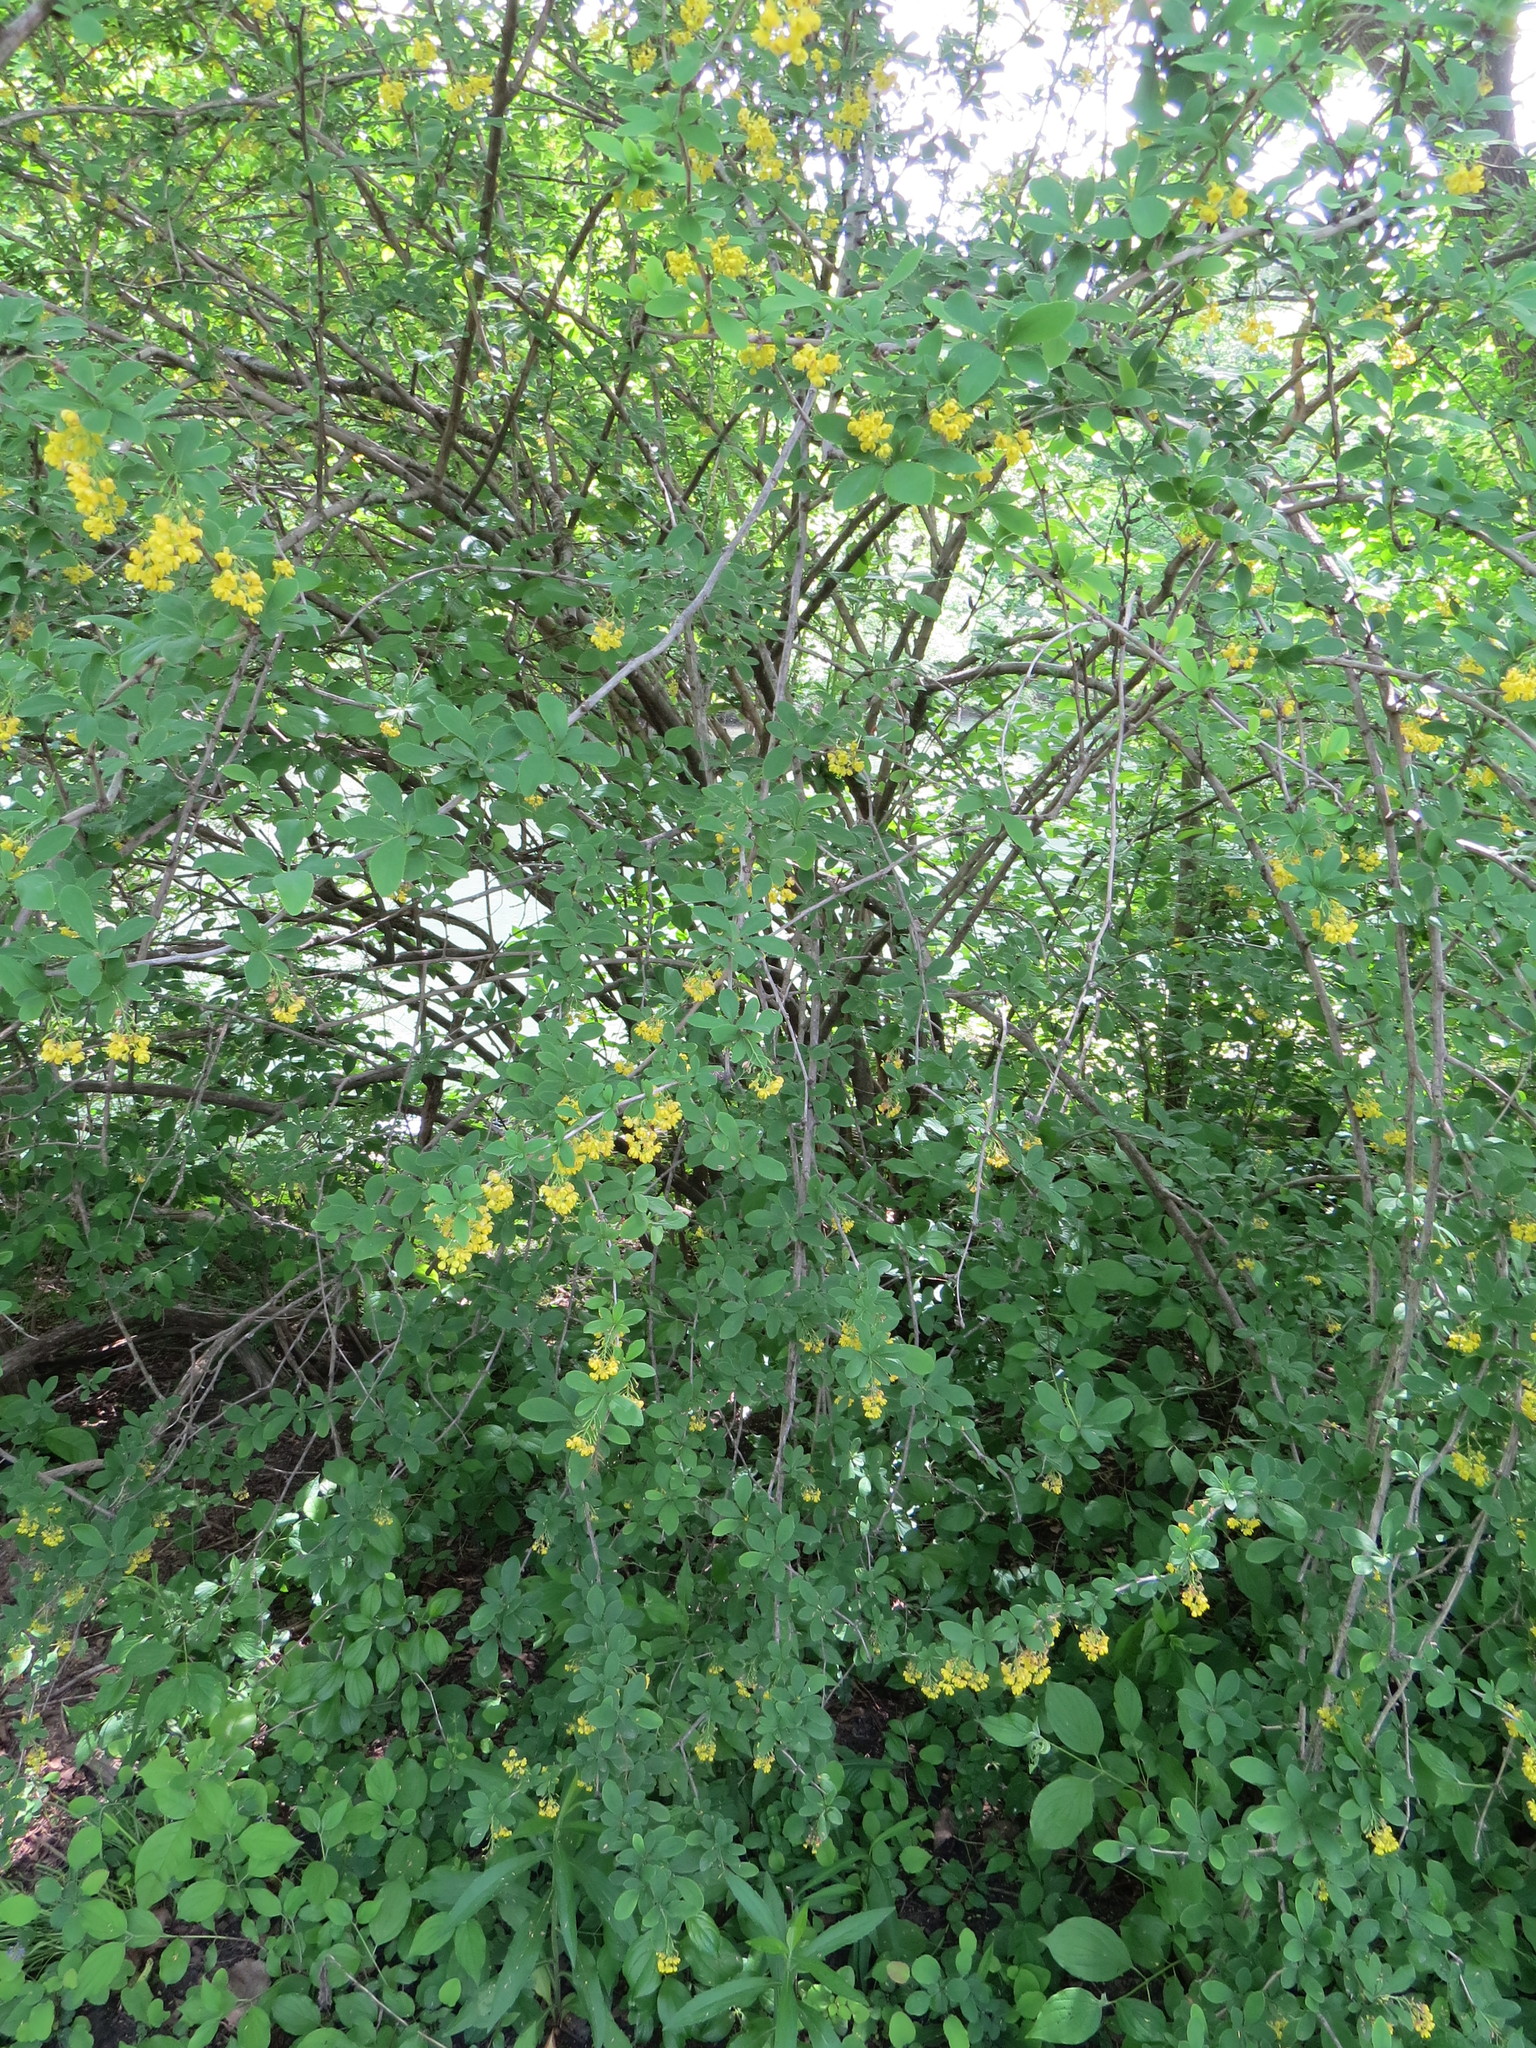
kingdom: Plantae
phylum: Tracheophyta
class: Magnoliopsida
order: Ranunculales
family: Berberidaceae
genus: Berberis
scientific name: Berberis vulgaris
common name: Barberry
